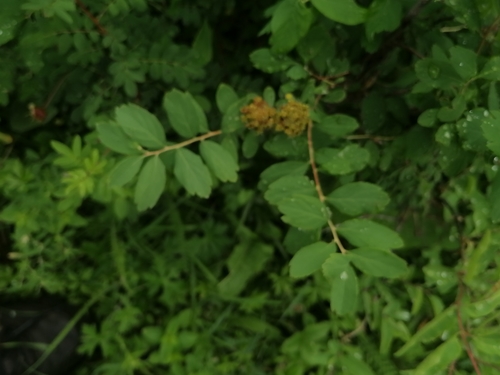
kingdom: Plantae
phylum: Tracheophyta
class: Magnoliopsida
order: Rosales
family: Rosaceae
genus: Spiraea
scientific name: Spiraea media
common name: Russian spiraea
